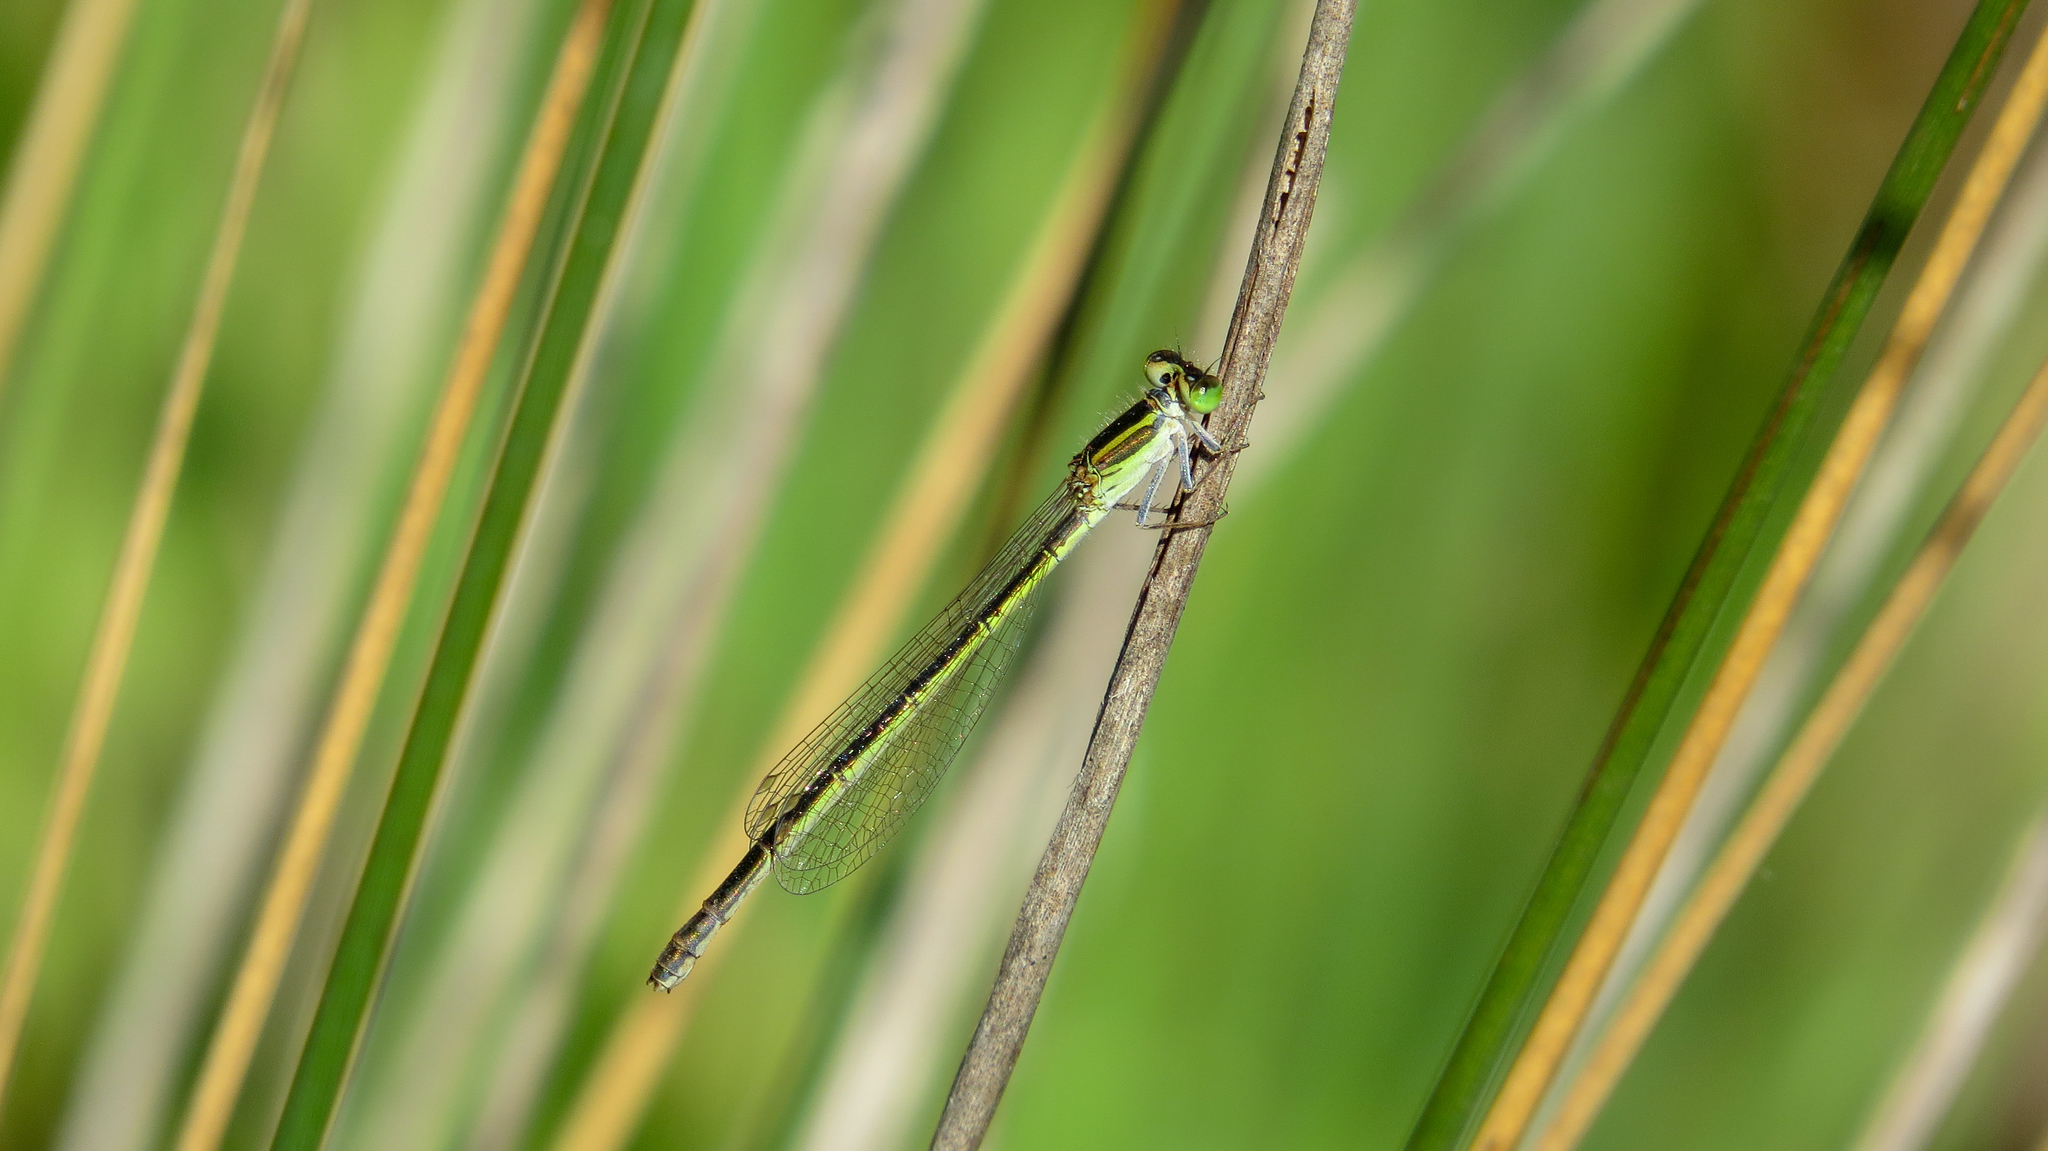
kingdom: Animalia
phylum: Arthropoda
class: Insecta
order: Odonata
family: Coenagrionidae
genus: Ischnura
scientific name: Ischnura aurora
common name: Gossamer damselfly
